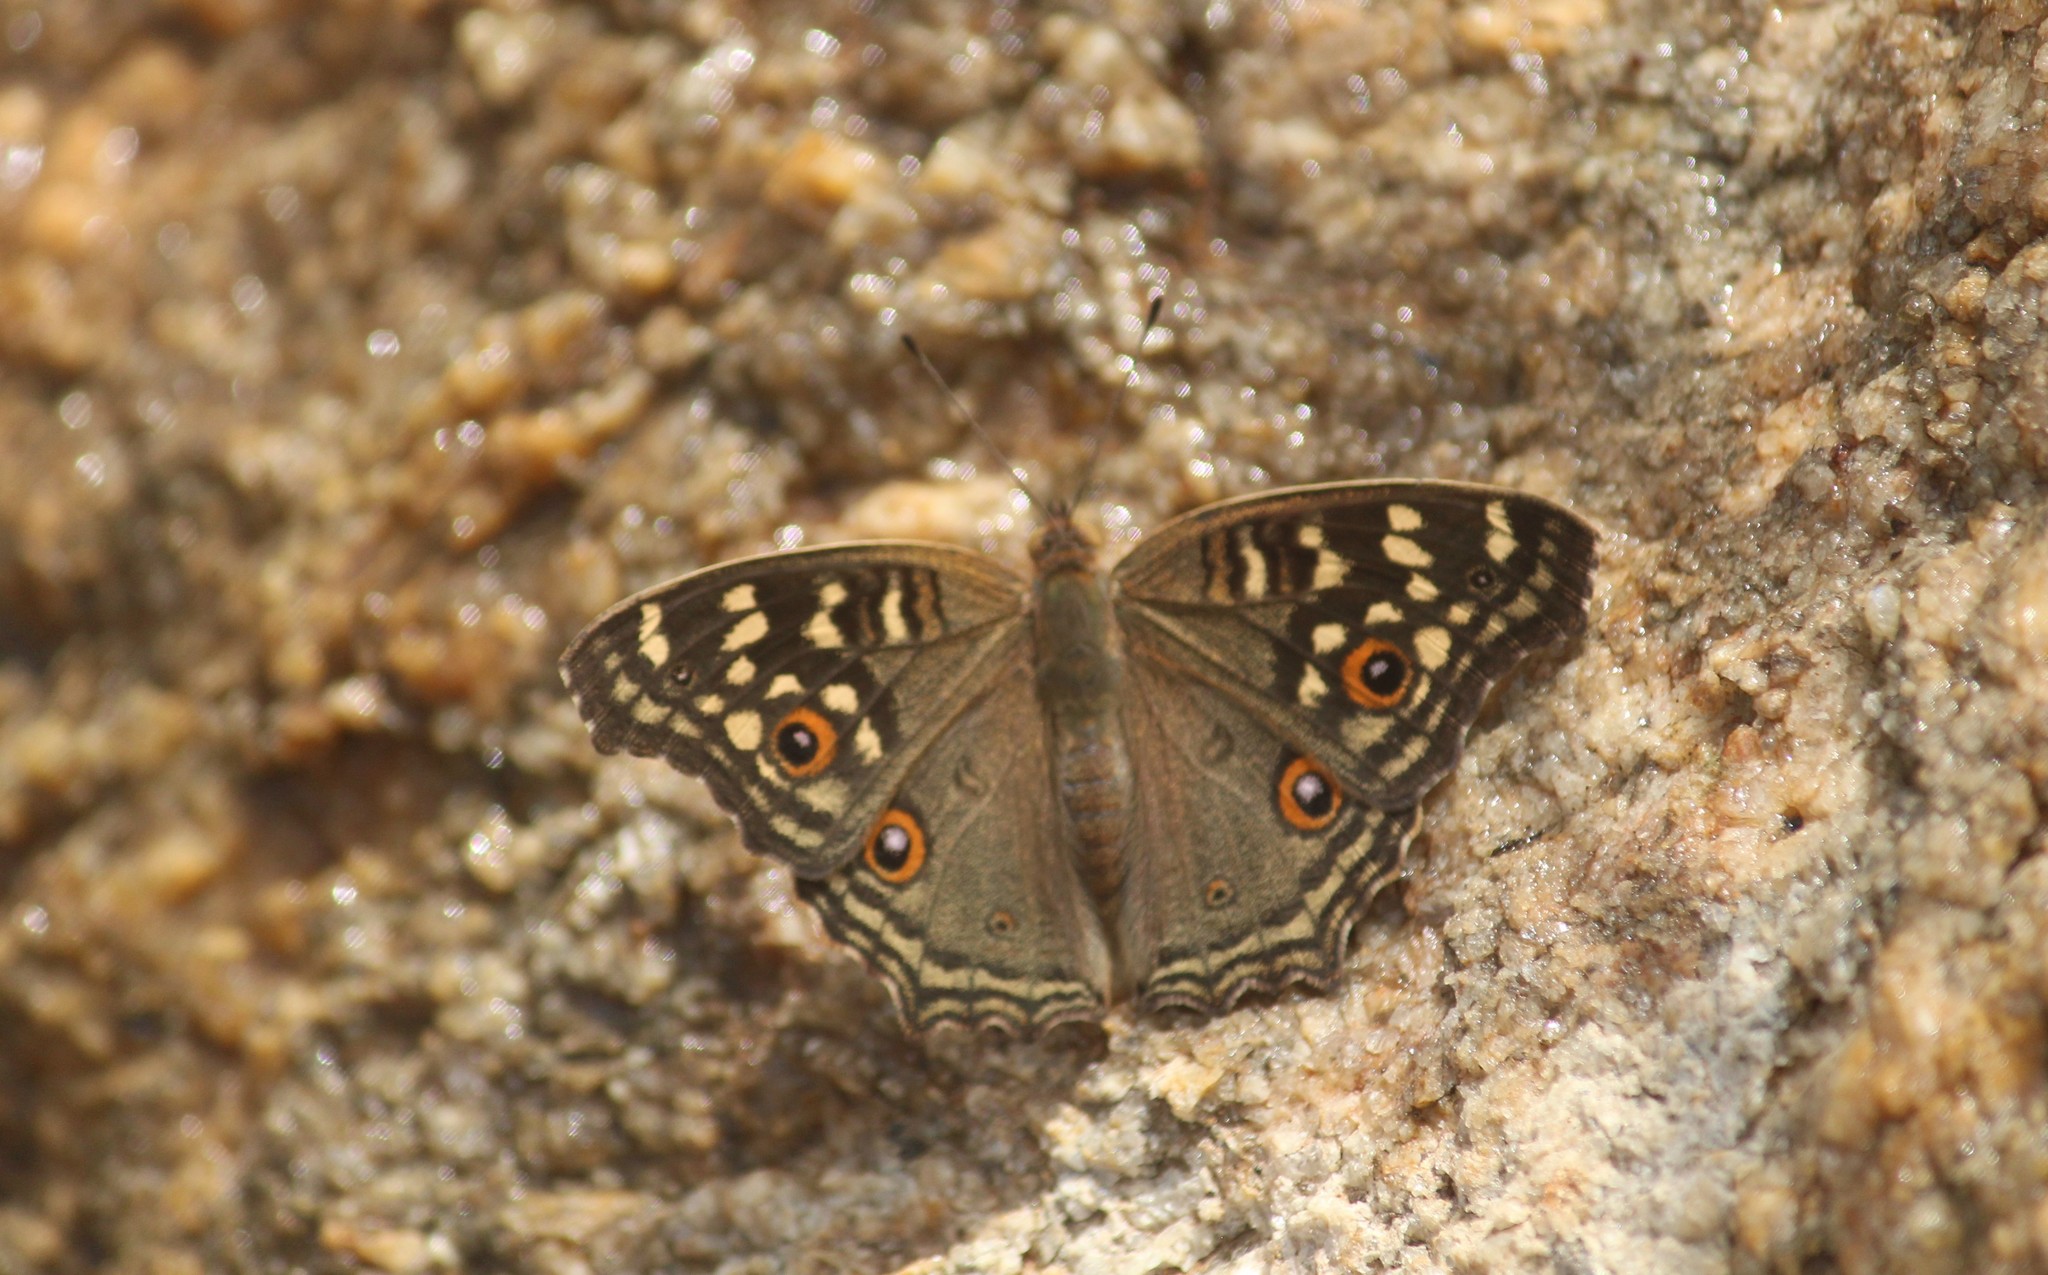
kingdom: Animalia
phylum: Arthropoda
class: Insecta
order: Lepidoptera
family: Nymphalidae
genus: Junonia
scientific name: Junonia lemonias
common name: Lemon pansy
